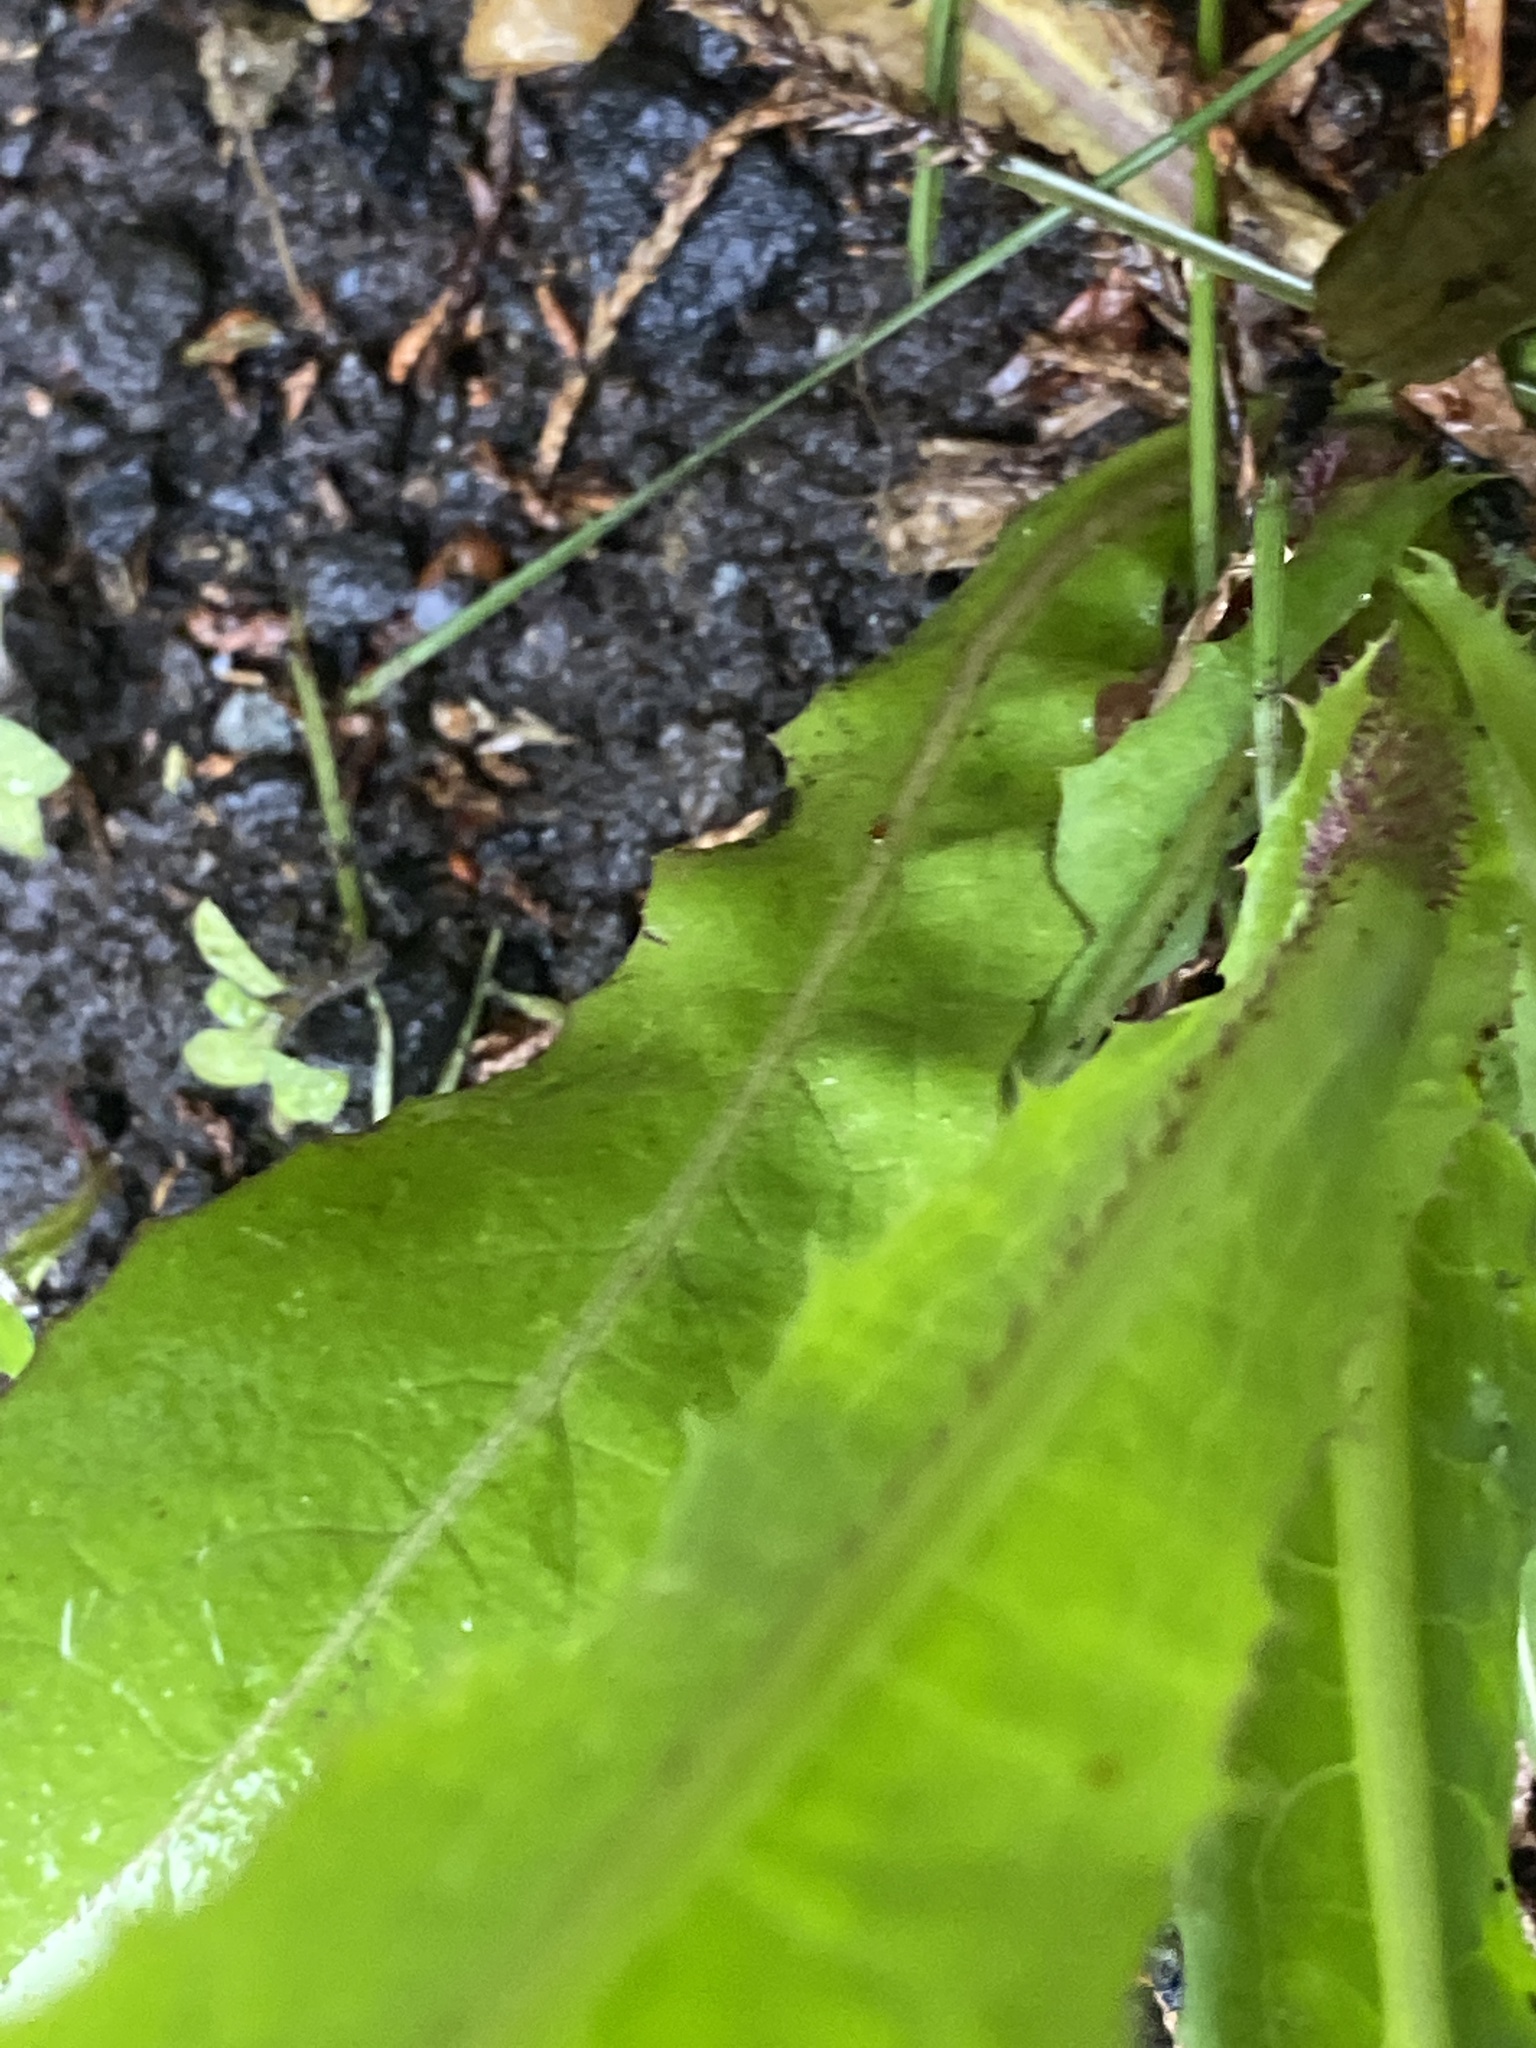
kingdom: Plantae
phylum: Tracheophyta
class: Magnoliopsida
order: Asterales
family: Asteraceae
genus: Lactuca
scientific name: Lactuca serriola
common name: Prickly lettuce
